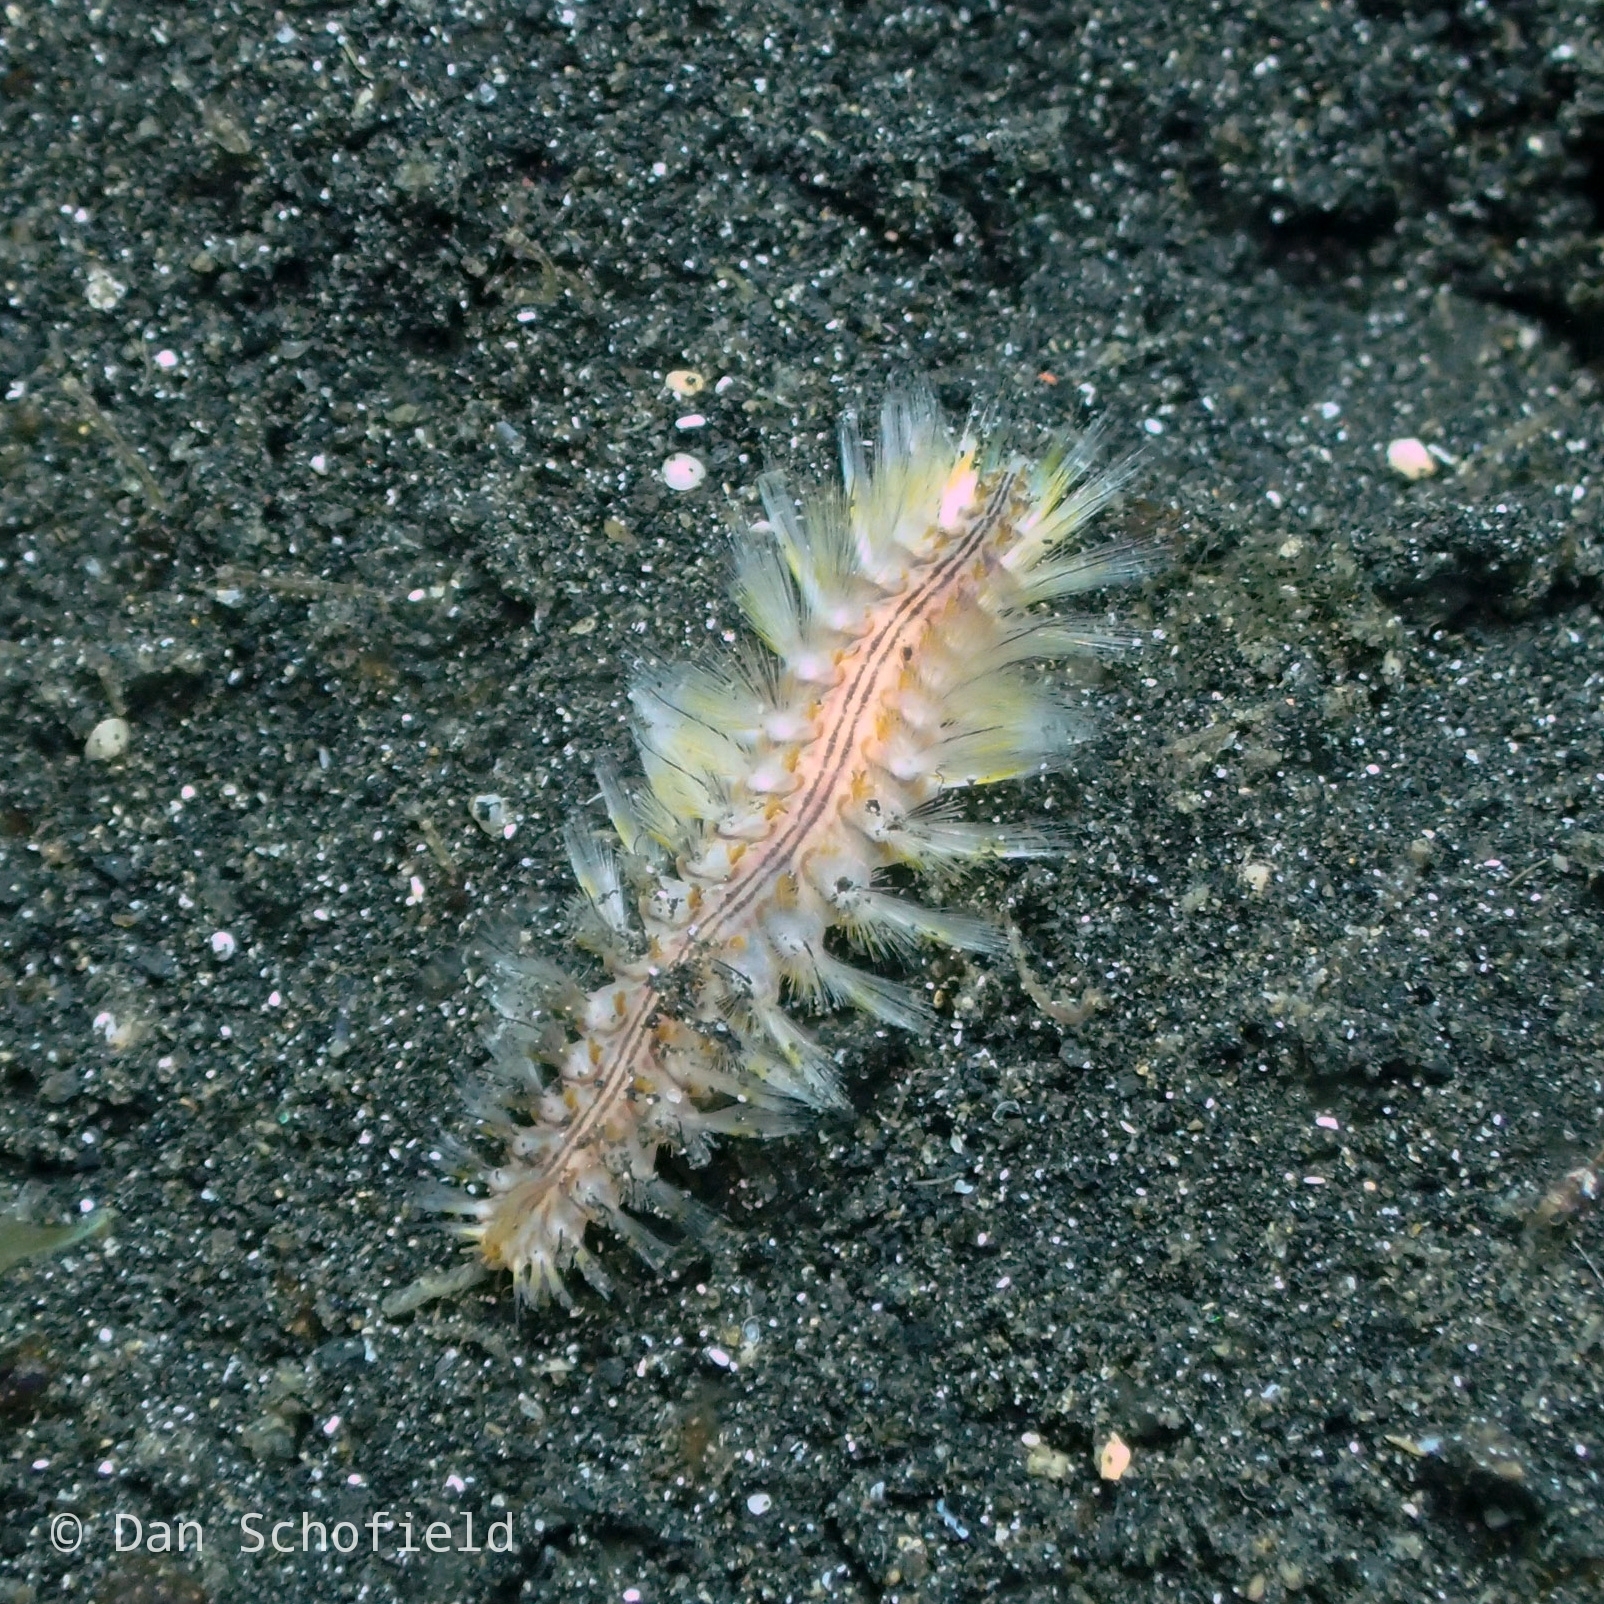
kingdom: Animalia
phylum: Annelida
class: Polychaeta
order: Amphinomida
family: Amphinomidae
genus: Chloeia
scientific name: Chloeia fusca
